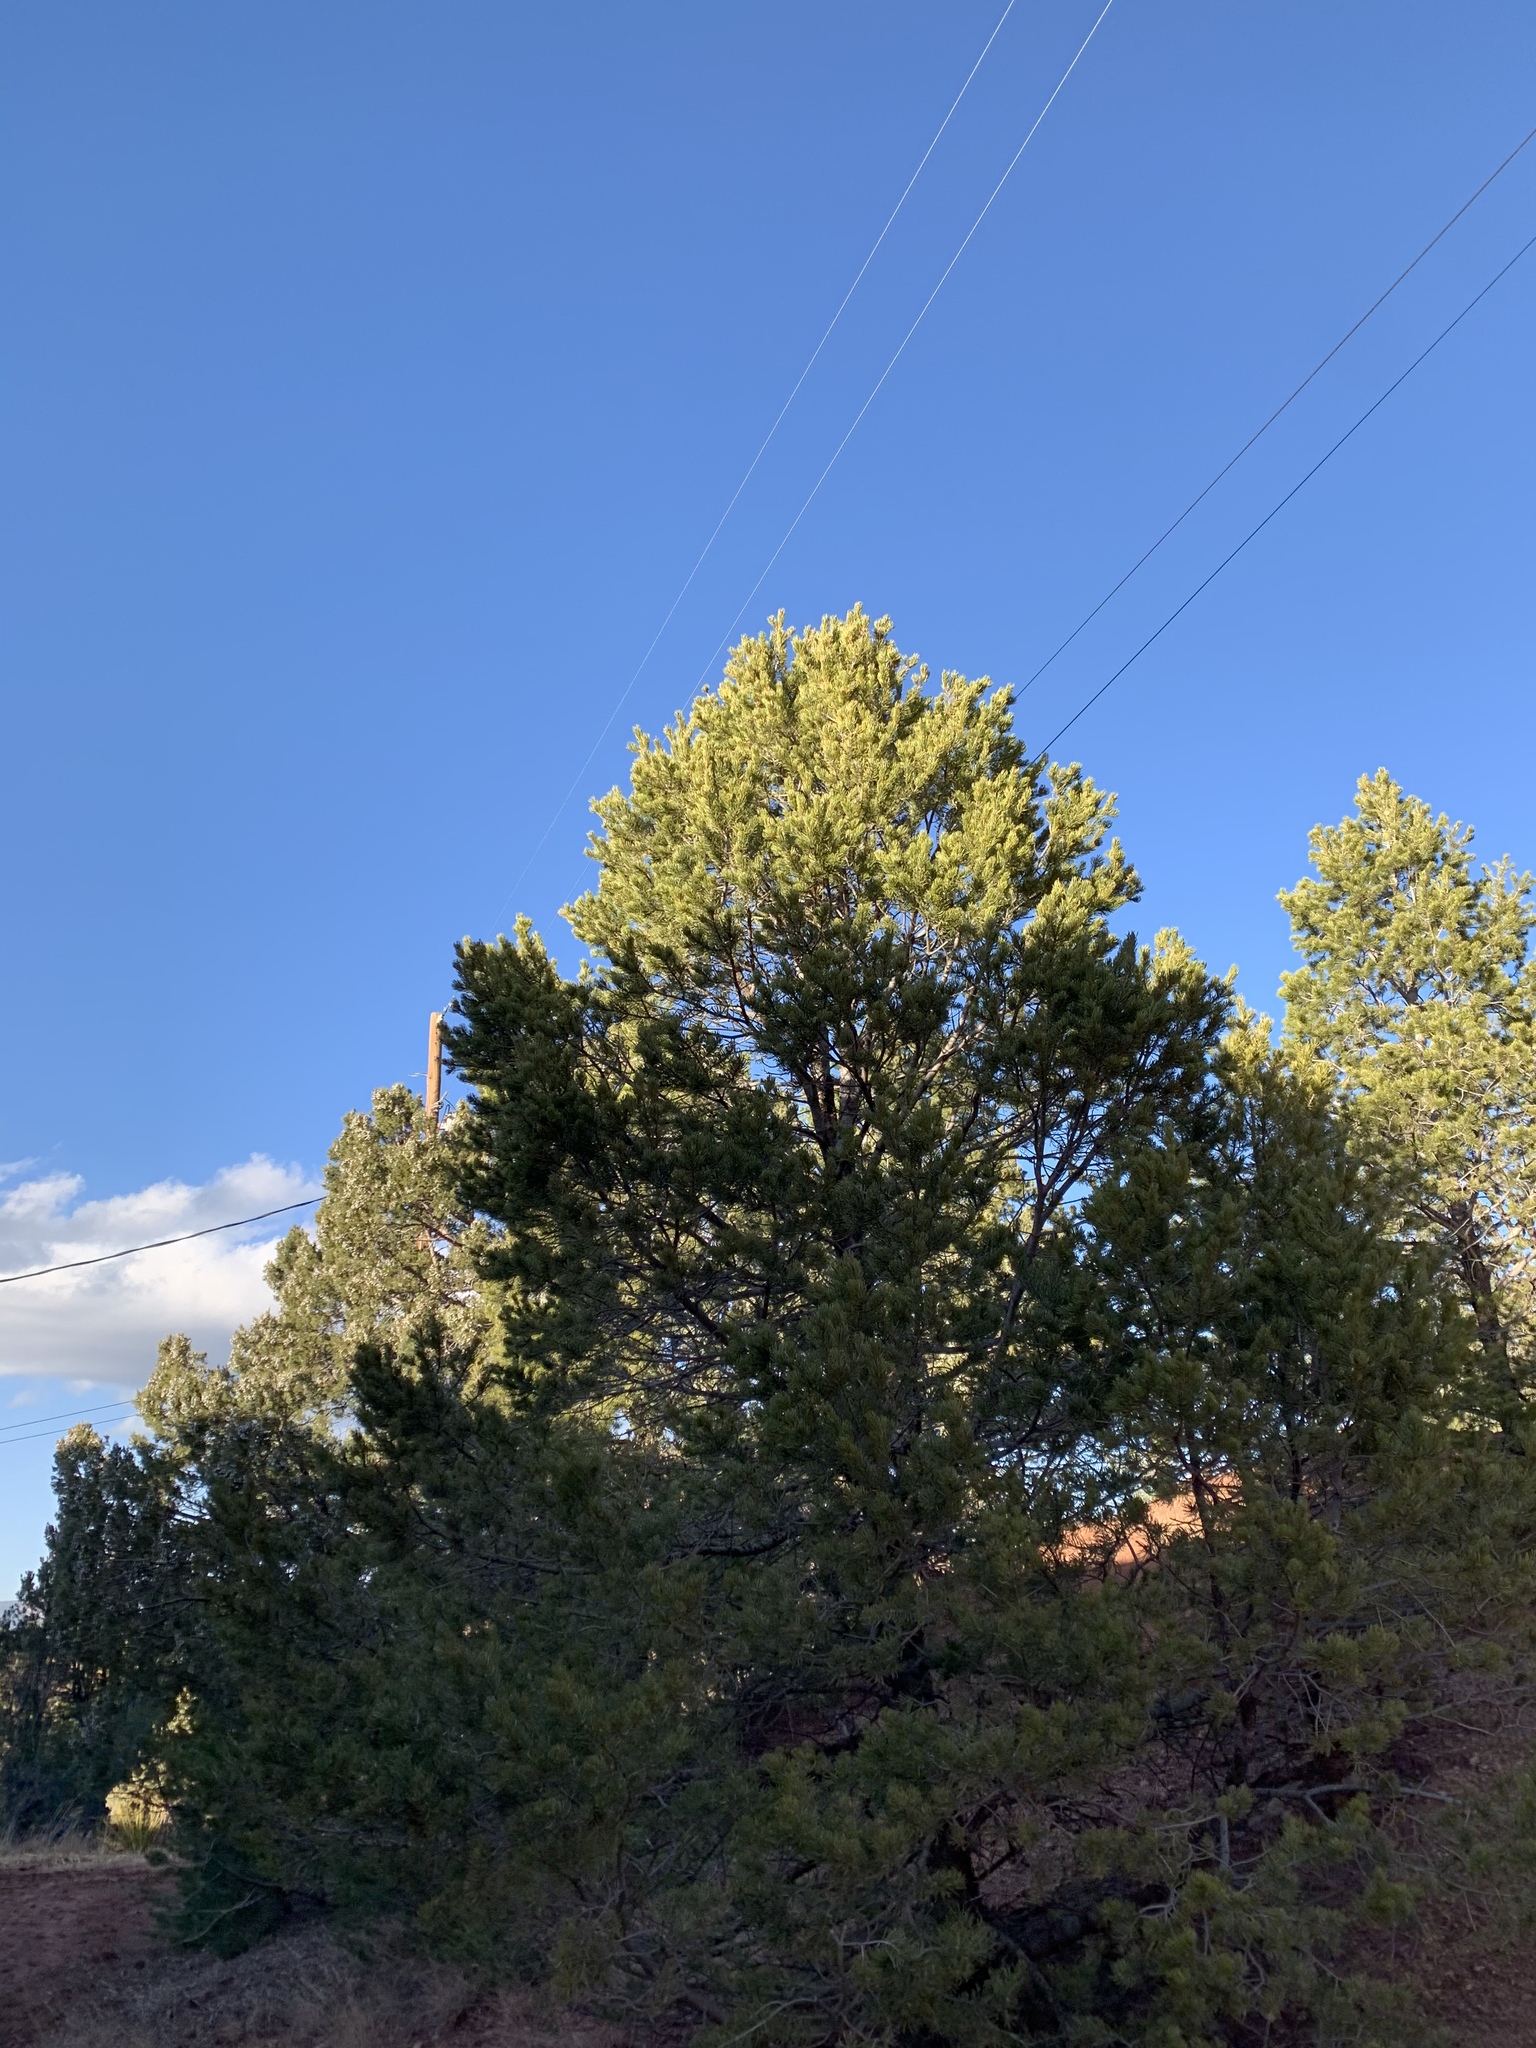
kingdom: Plantae
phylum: Tracheophyta
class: Pinopsida
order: Pinales
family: Pinaceae
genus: Pinus
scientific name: Pinus edulis
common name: Colorado pinyon
